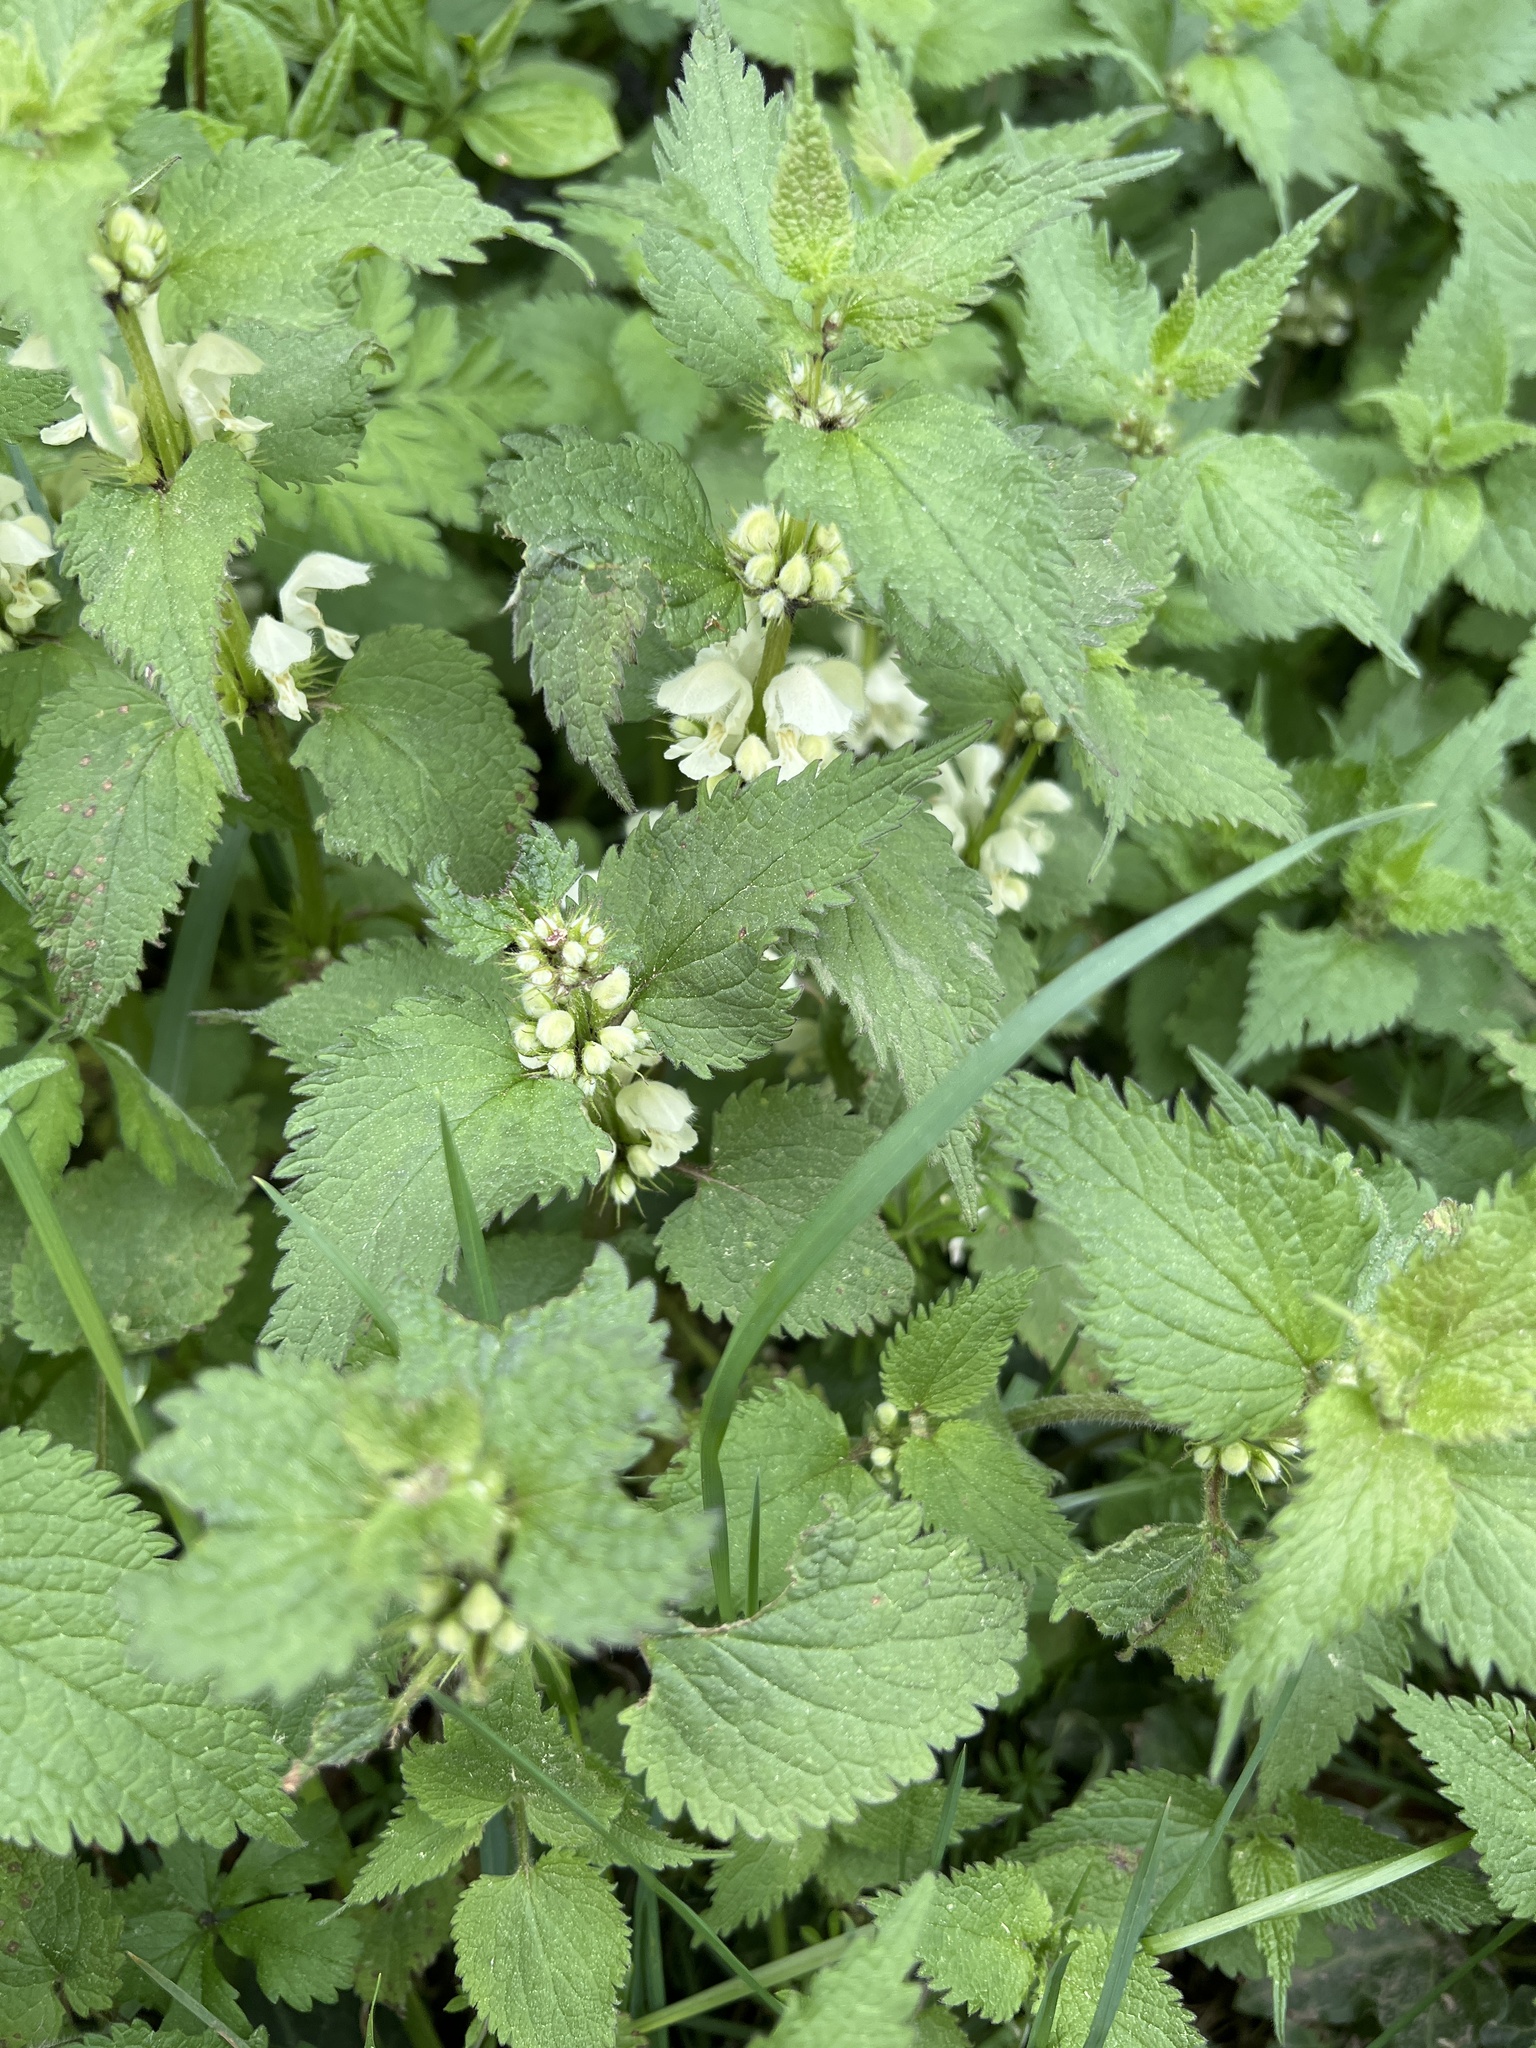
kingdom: Plantae
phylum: Tracheophyta
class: Magnoliopsida
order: Lamiales
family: Lamiaceae
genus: Lamium
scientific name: Lamium album
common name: White dead-nettle
